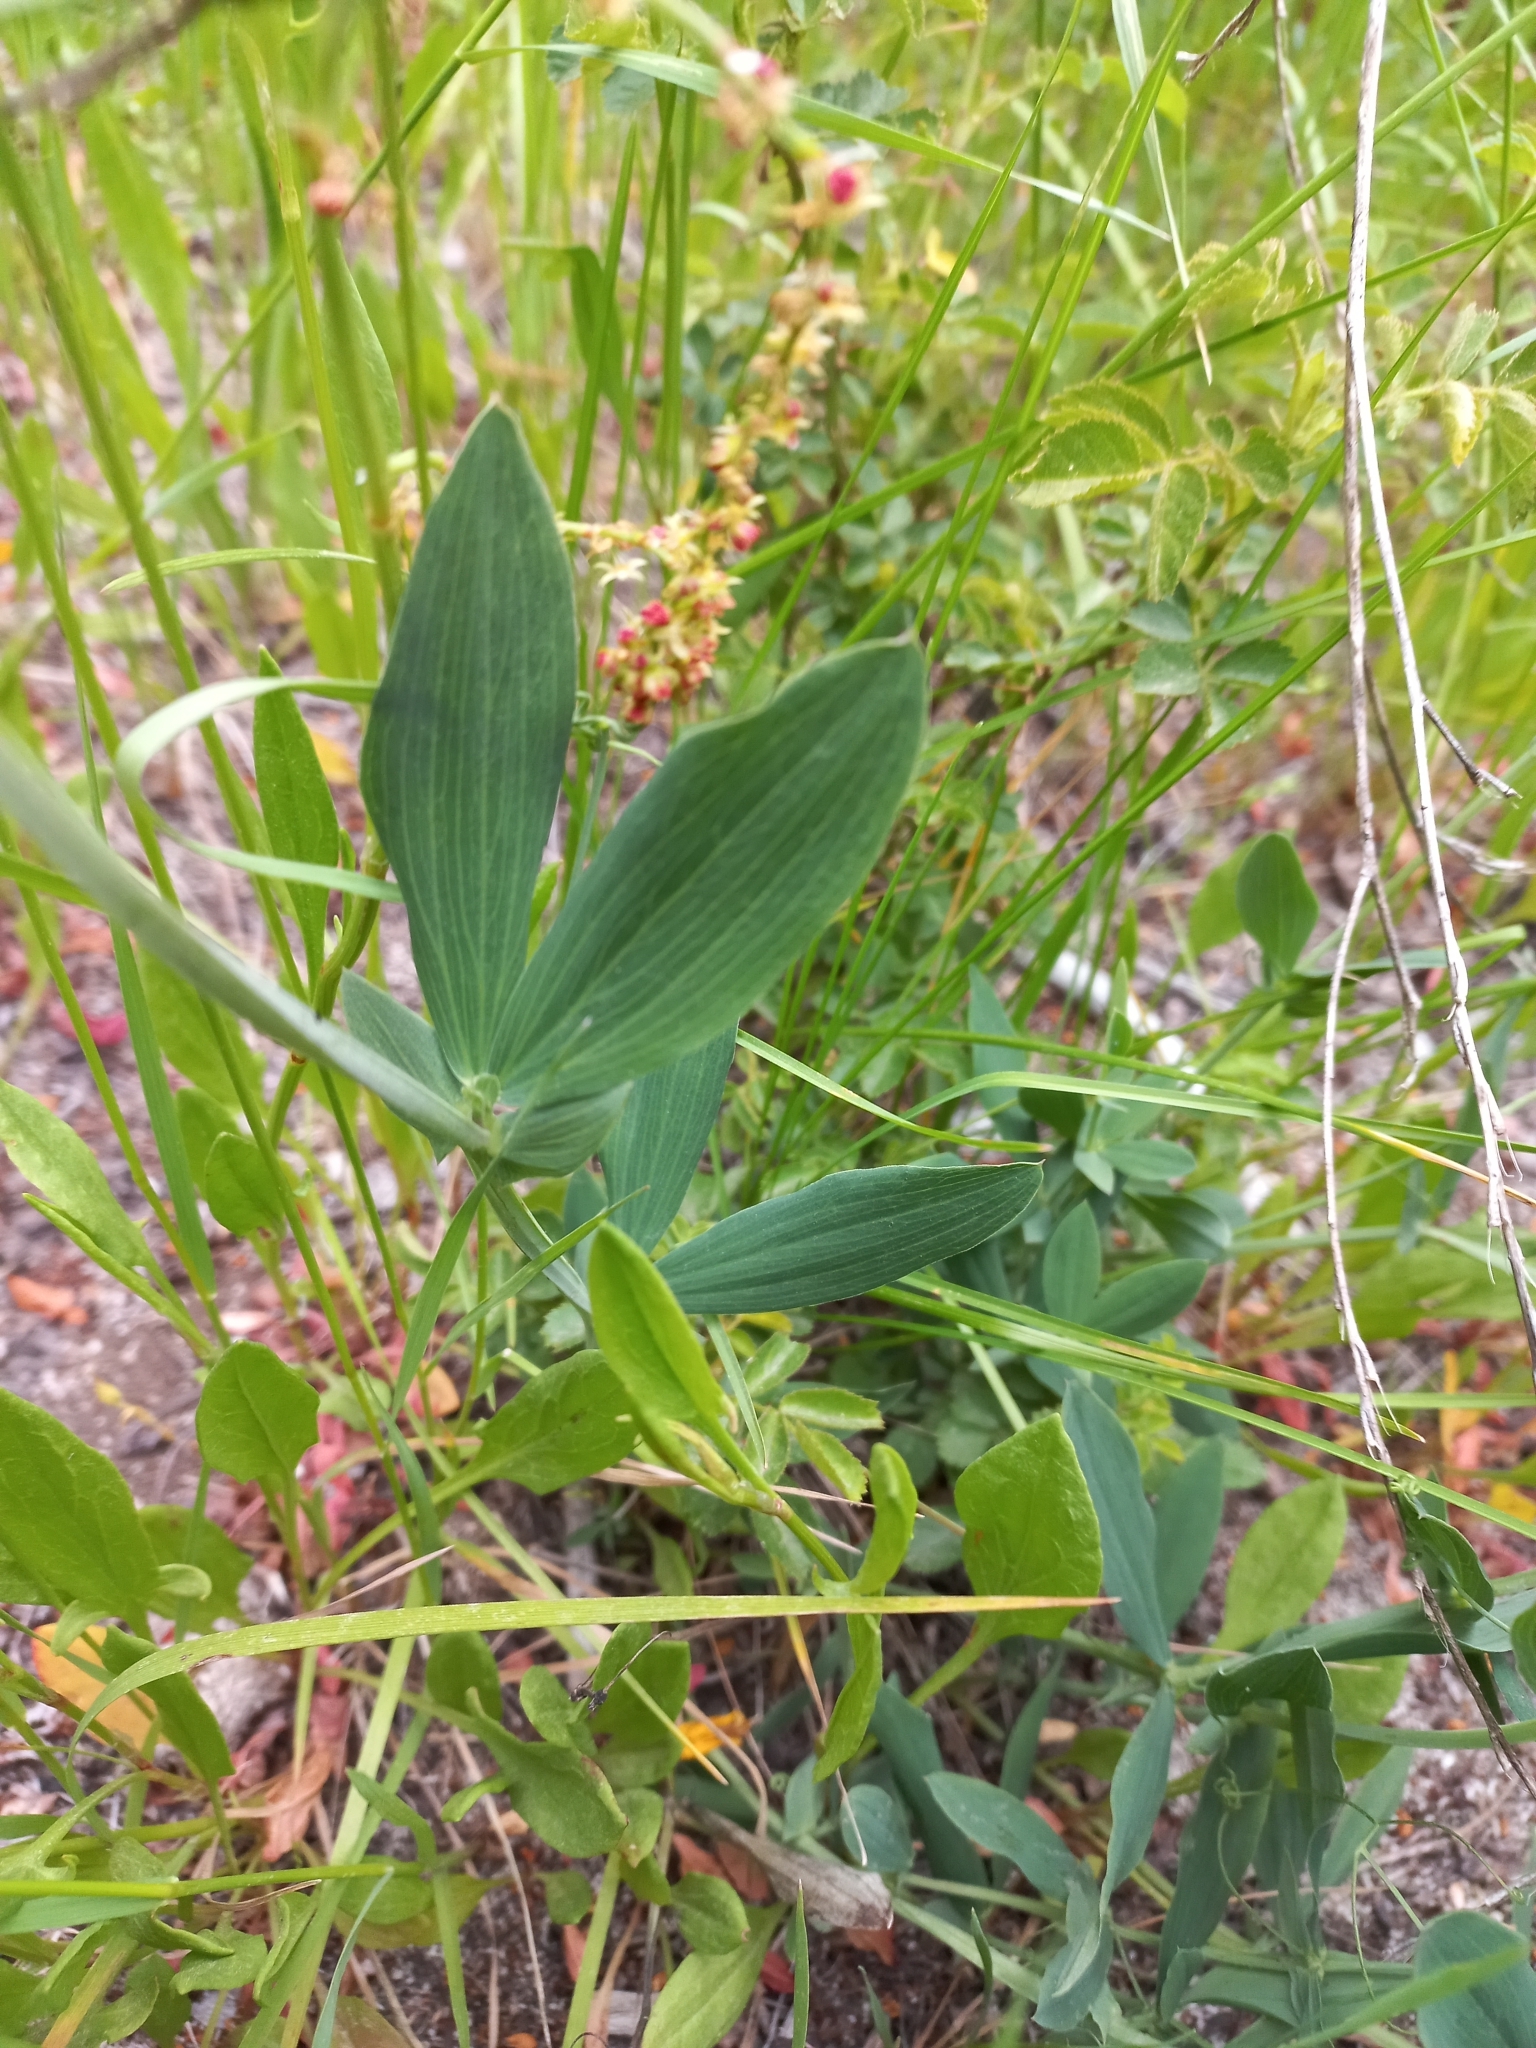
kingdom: Plantae
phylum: Tracheophyta
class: Magnoliopsida
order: Fabales
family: Fabaceae
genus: Lathyrus
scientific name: Lathyrus magellanicus
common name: Lord anson's pea
